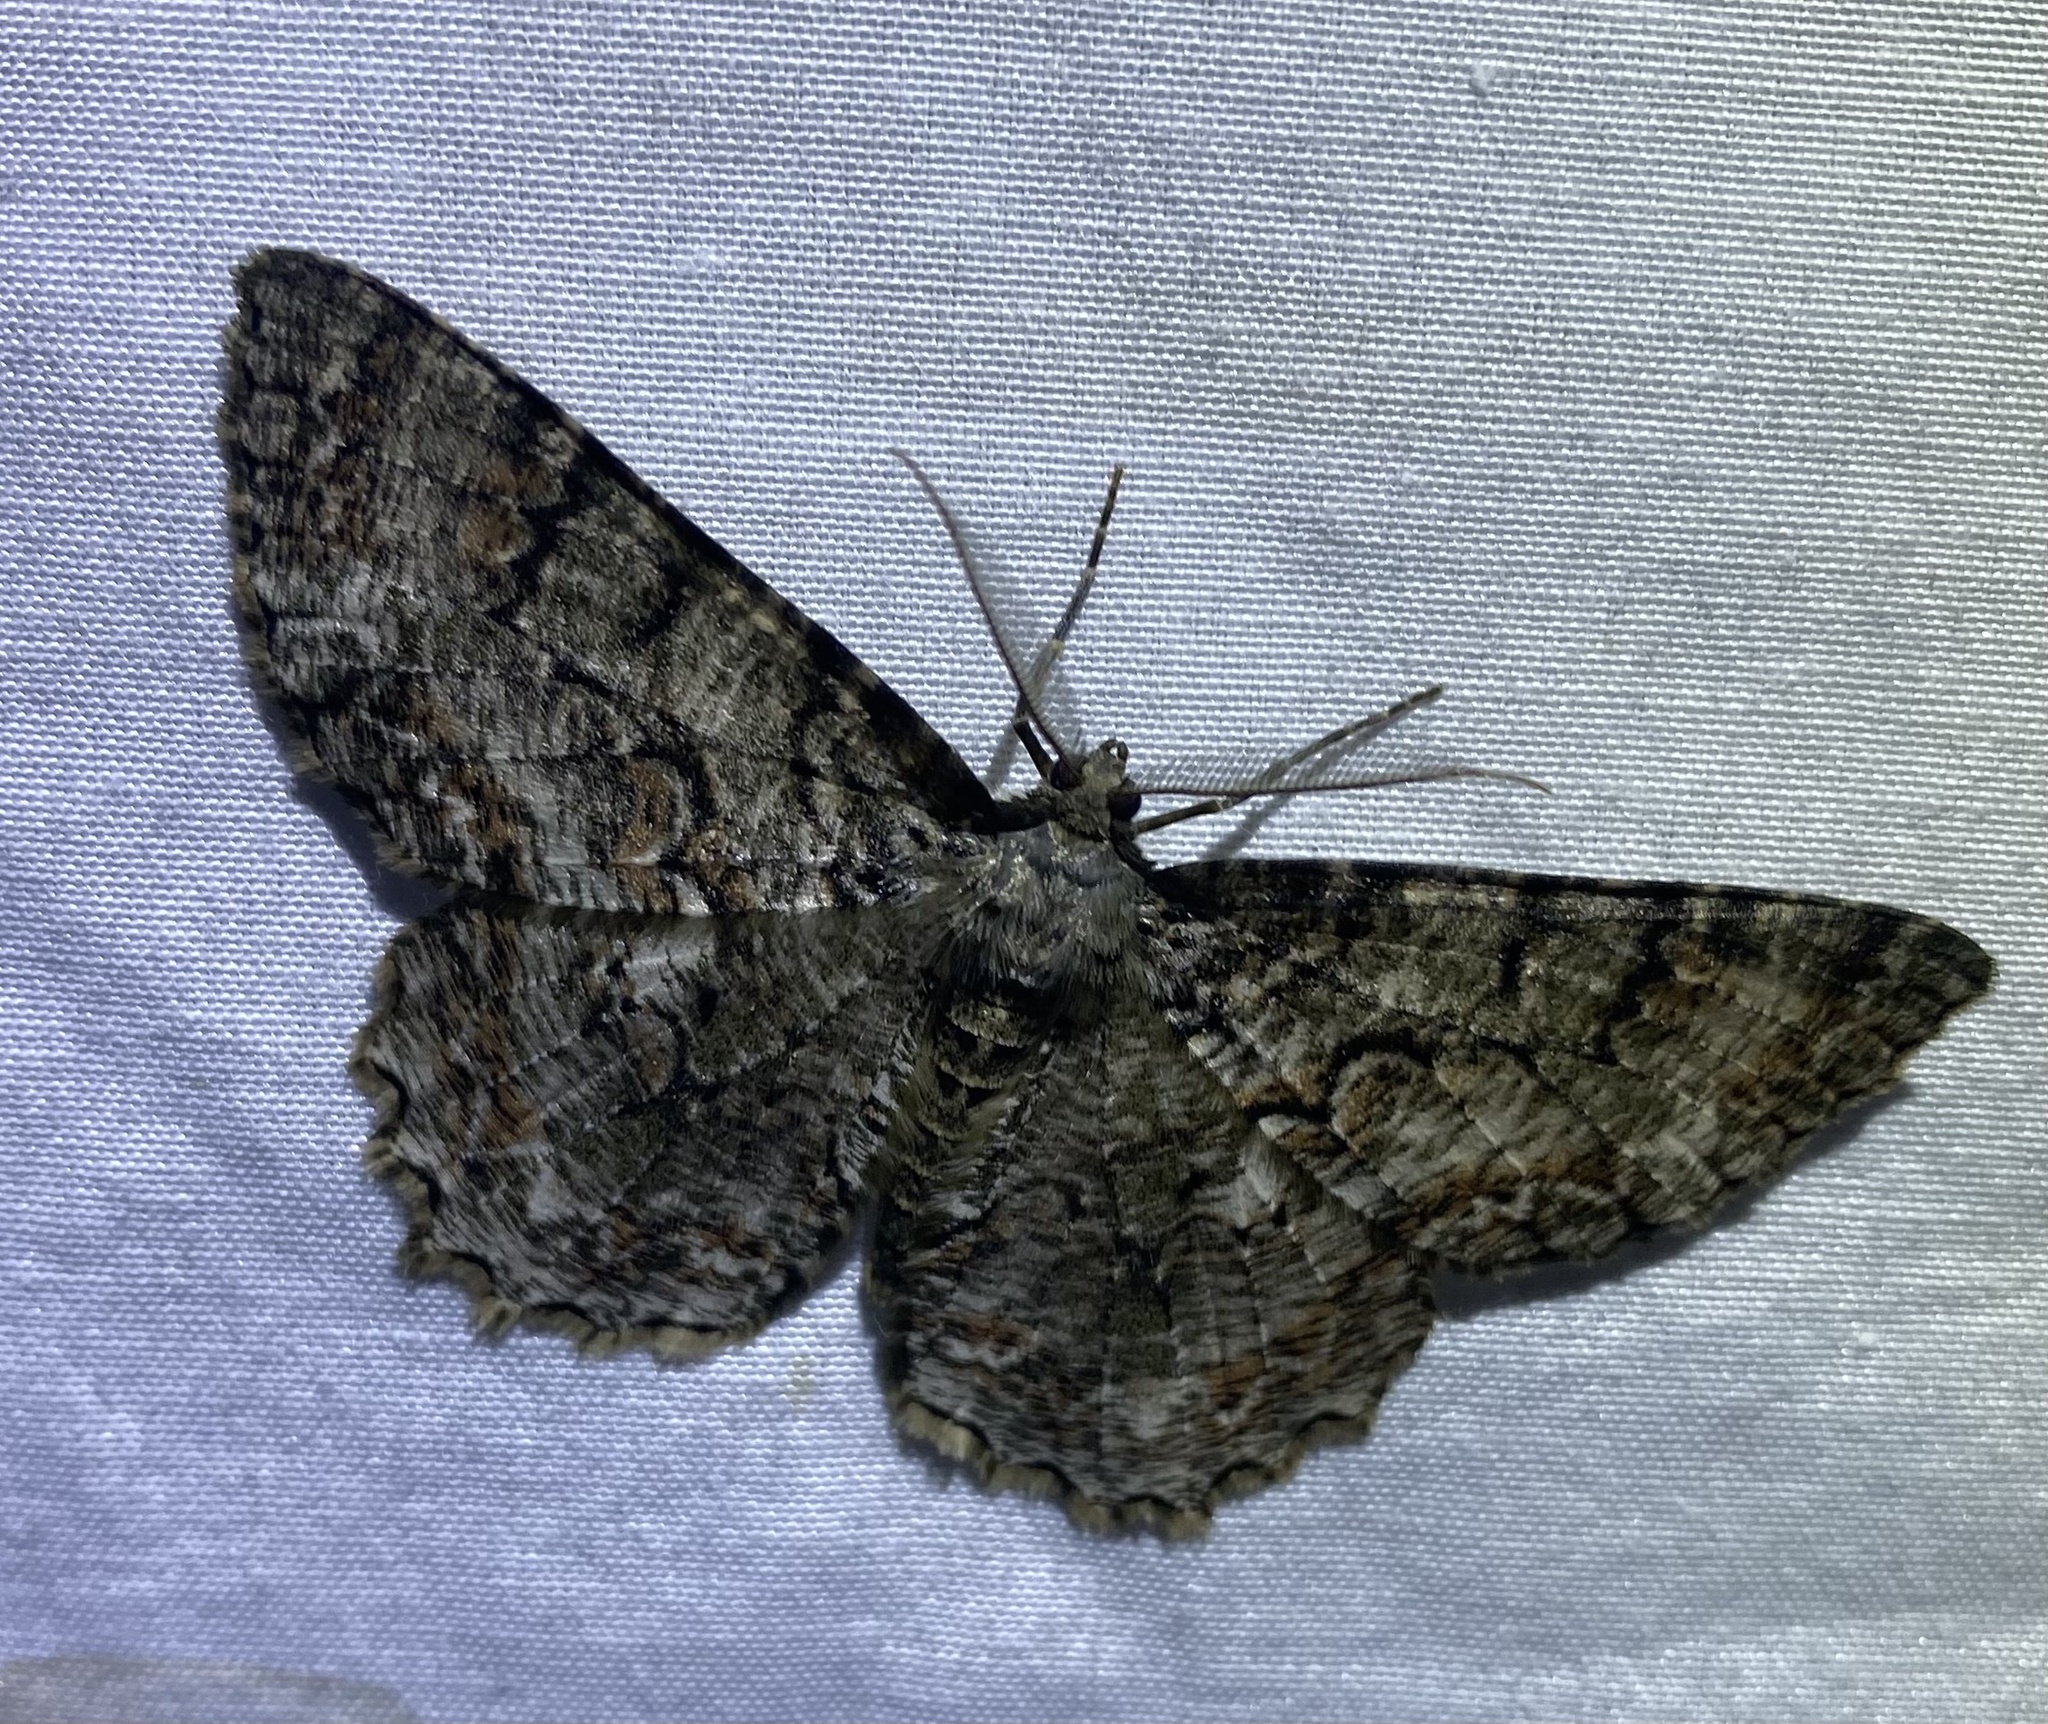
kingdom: Animalia
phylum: Arthropoda
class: Insecta
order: Lepidoptera
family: Geometridae
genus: Epimecis
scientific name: Epimecis hortaria
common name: Tulip-tree beauty
